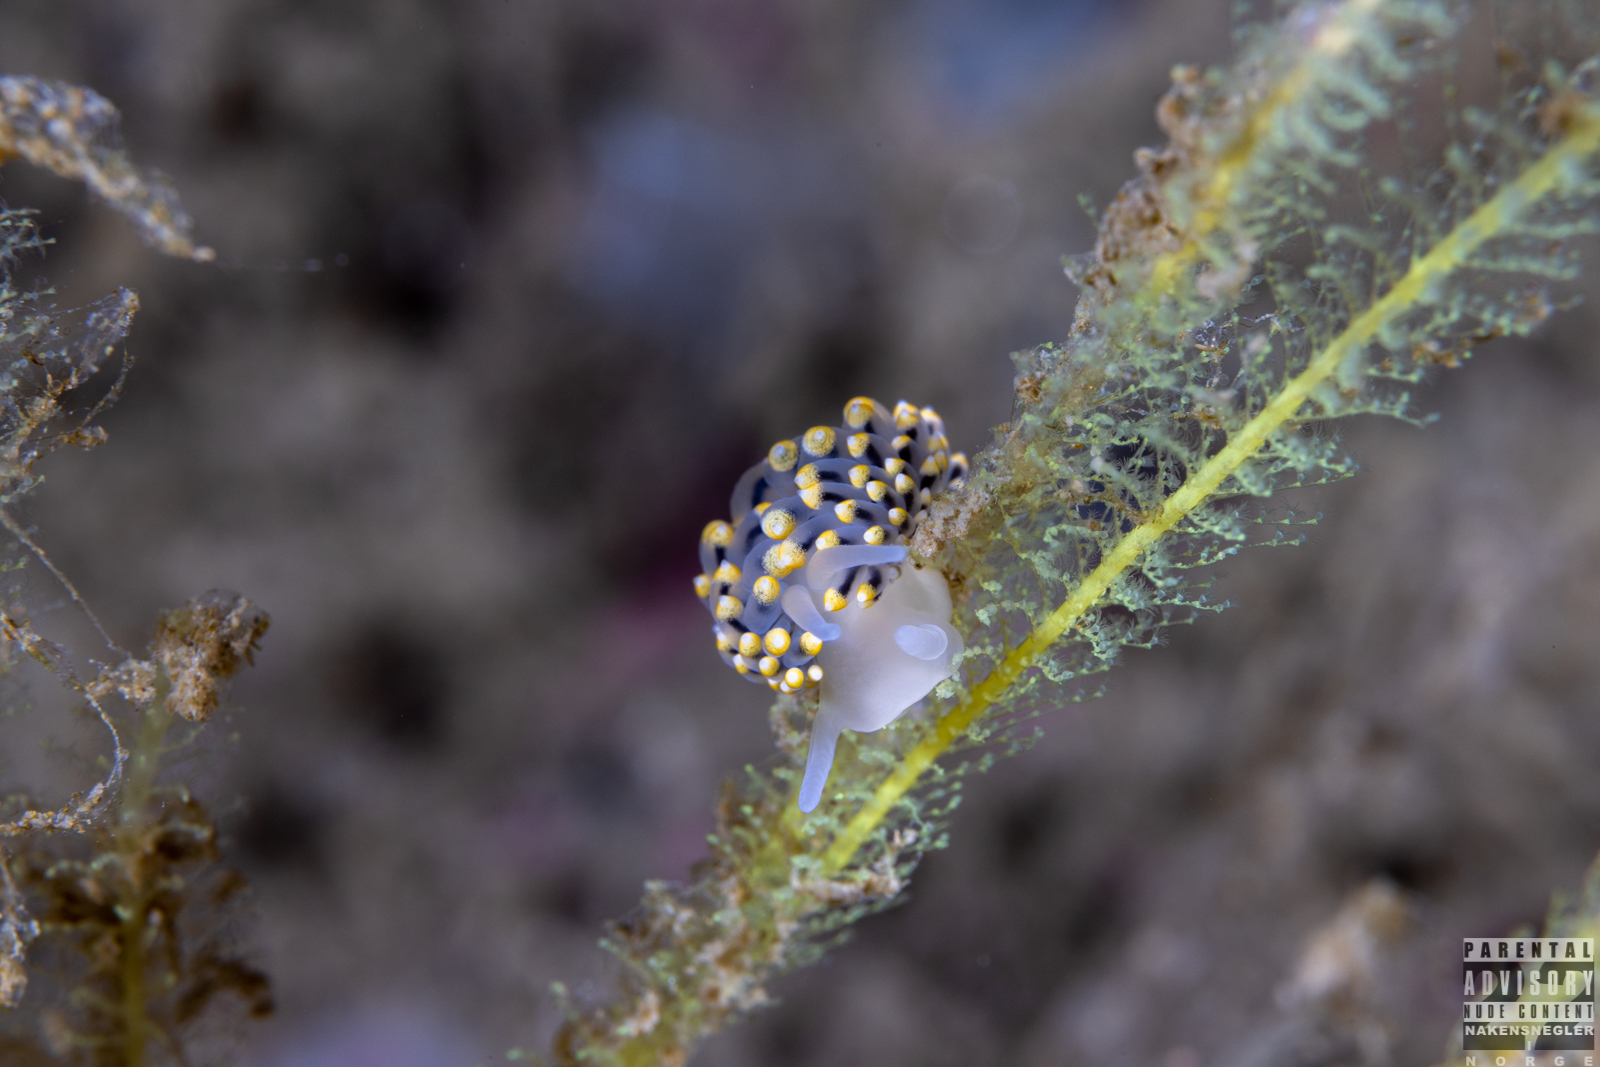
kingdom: Animalia
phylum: Mollusca
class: Gastropoda
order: Nudibranchia
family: Eubranchidae
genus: Eubranchus
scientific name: Eubranchus tricolor
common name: Painted balloon aeolis
